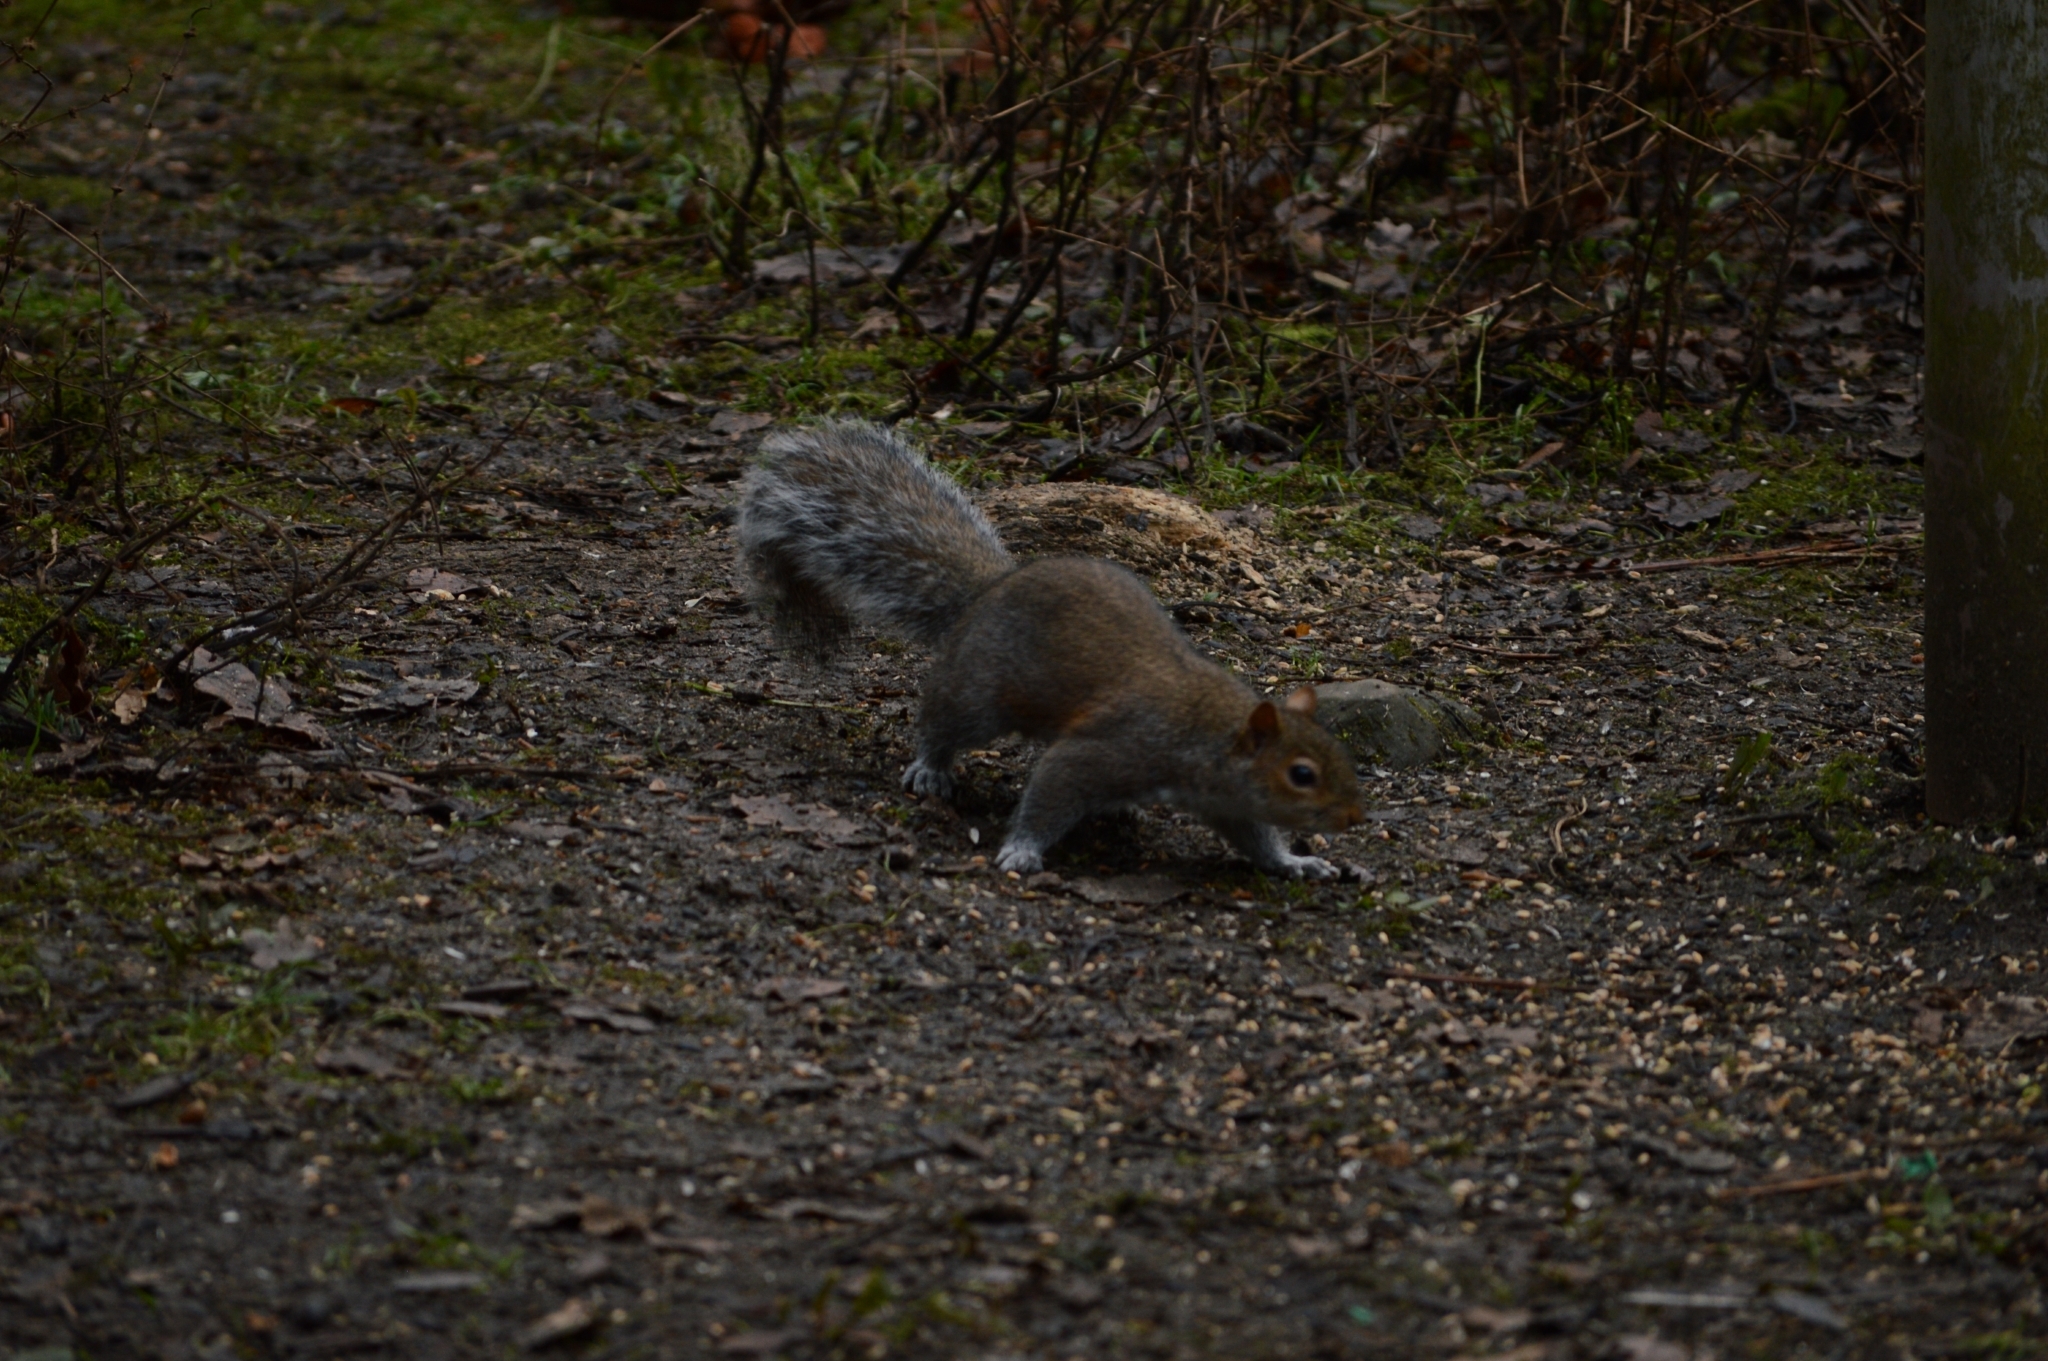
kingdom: Animalia
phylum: Chordata
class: Mammalia
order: Rodentia
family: Sciuridae
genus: Sciurus
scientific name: Sciurus carolinensis
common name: Eastern gray squirrel
